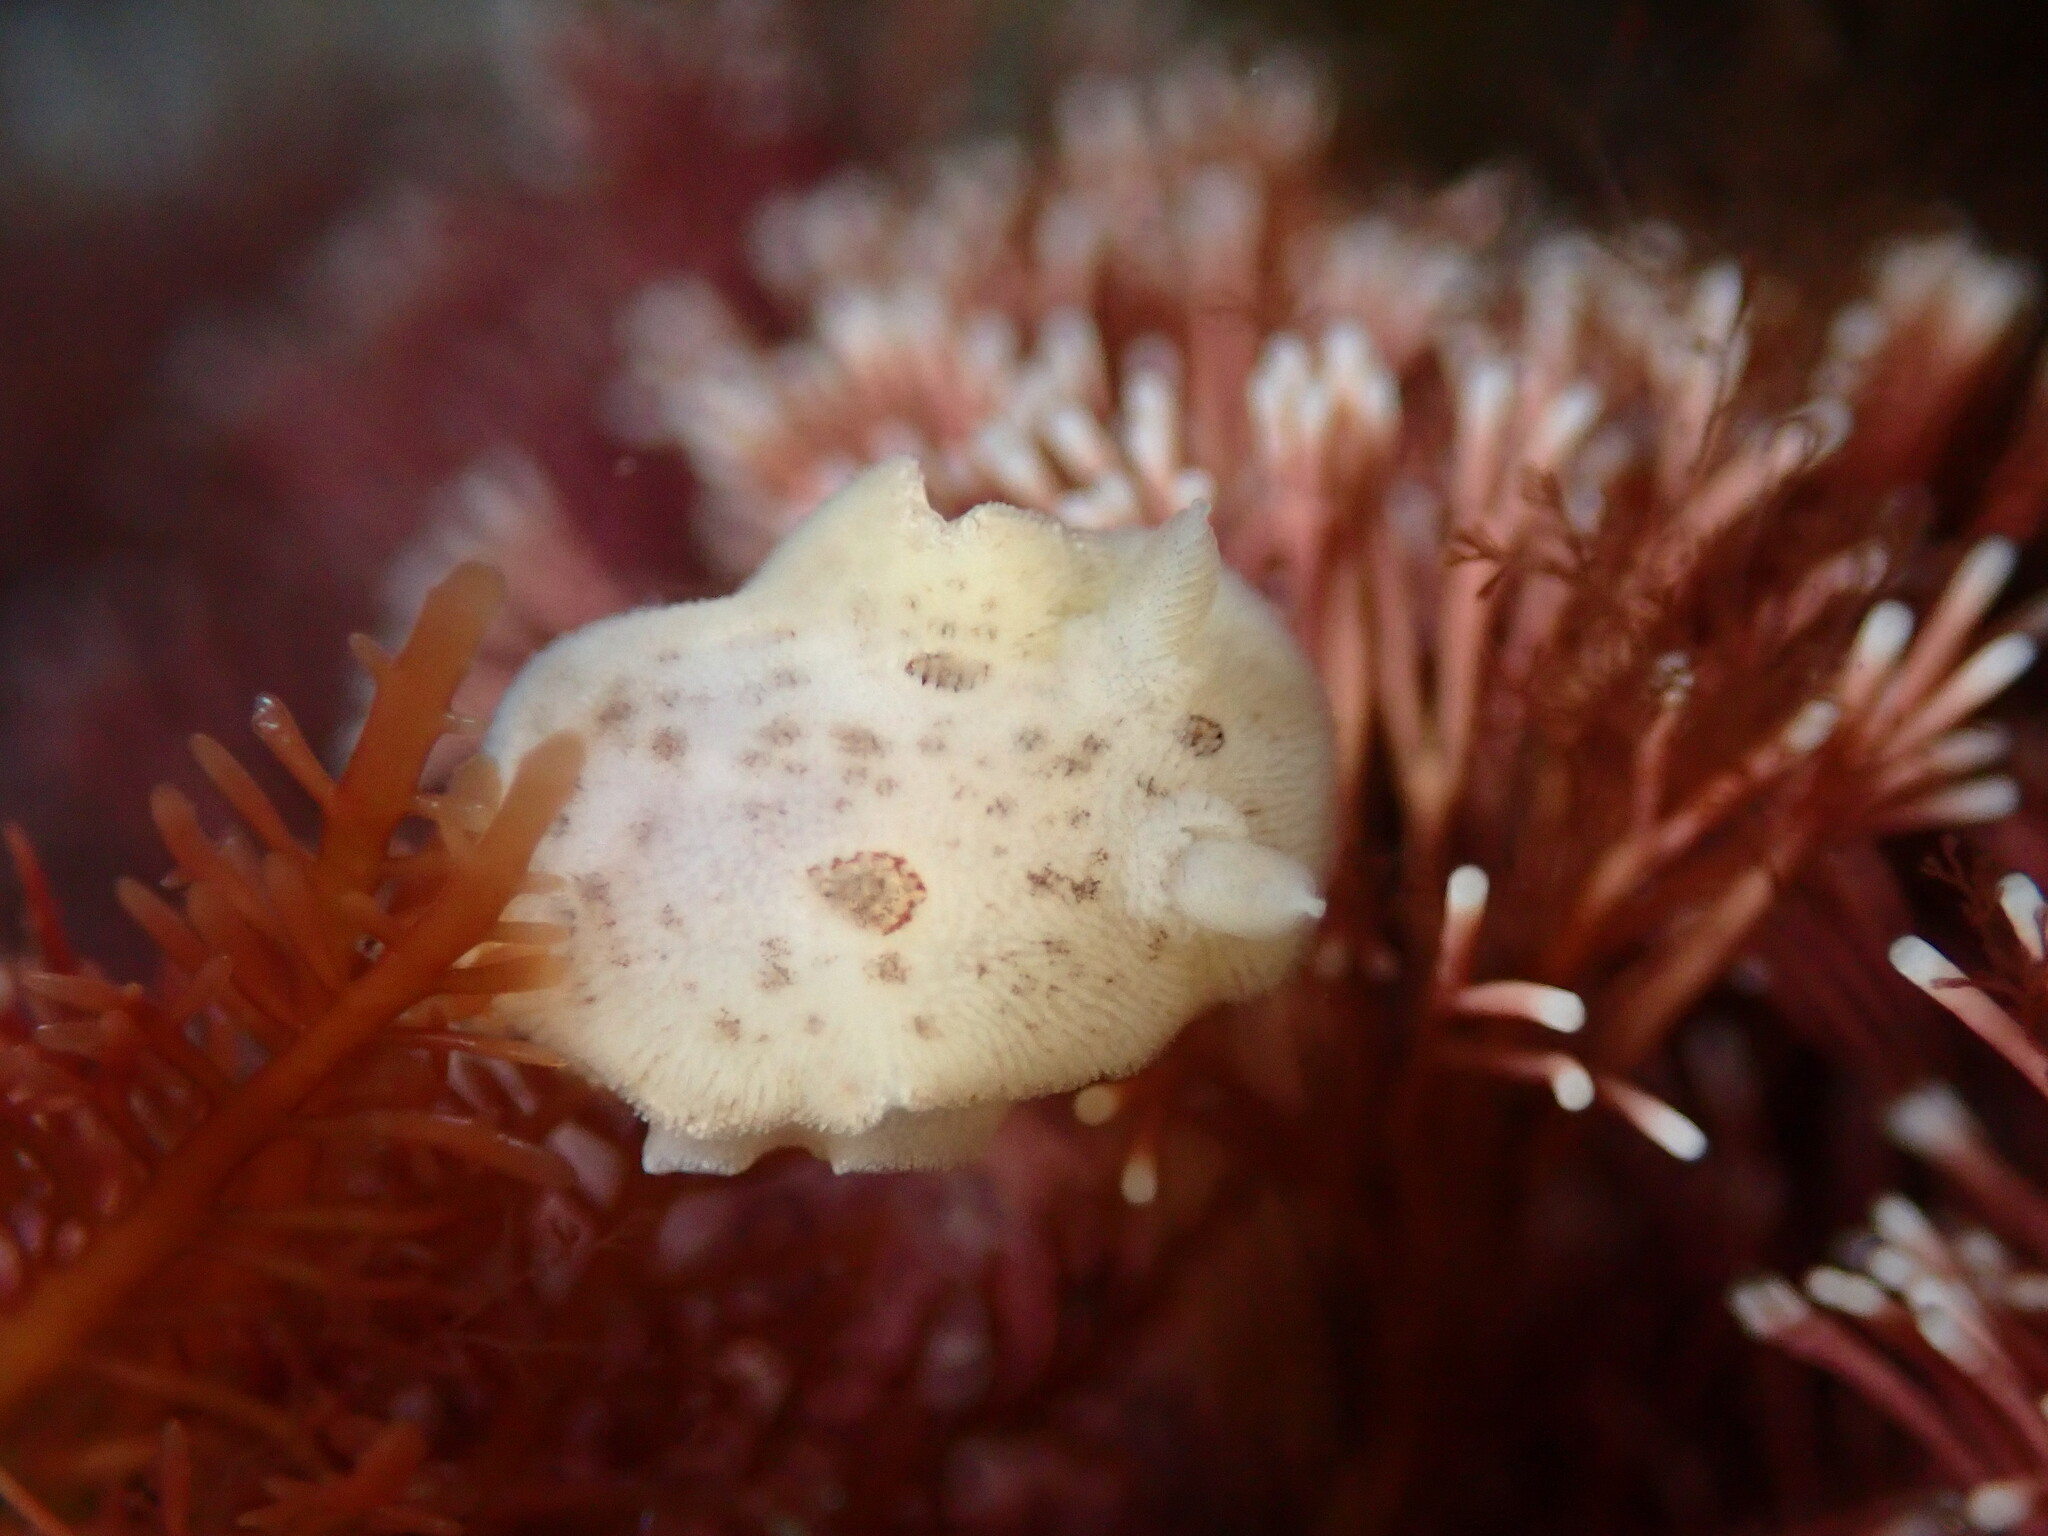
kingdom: Animalia
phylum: Mollusca
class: Gastropoda
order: Nudibranchia
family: Discodorididae
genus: Diaulula
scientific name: Diaulula sandiegensis
